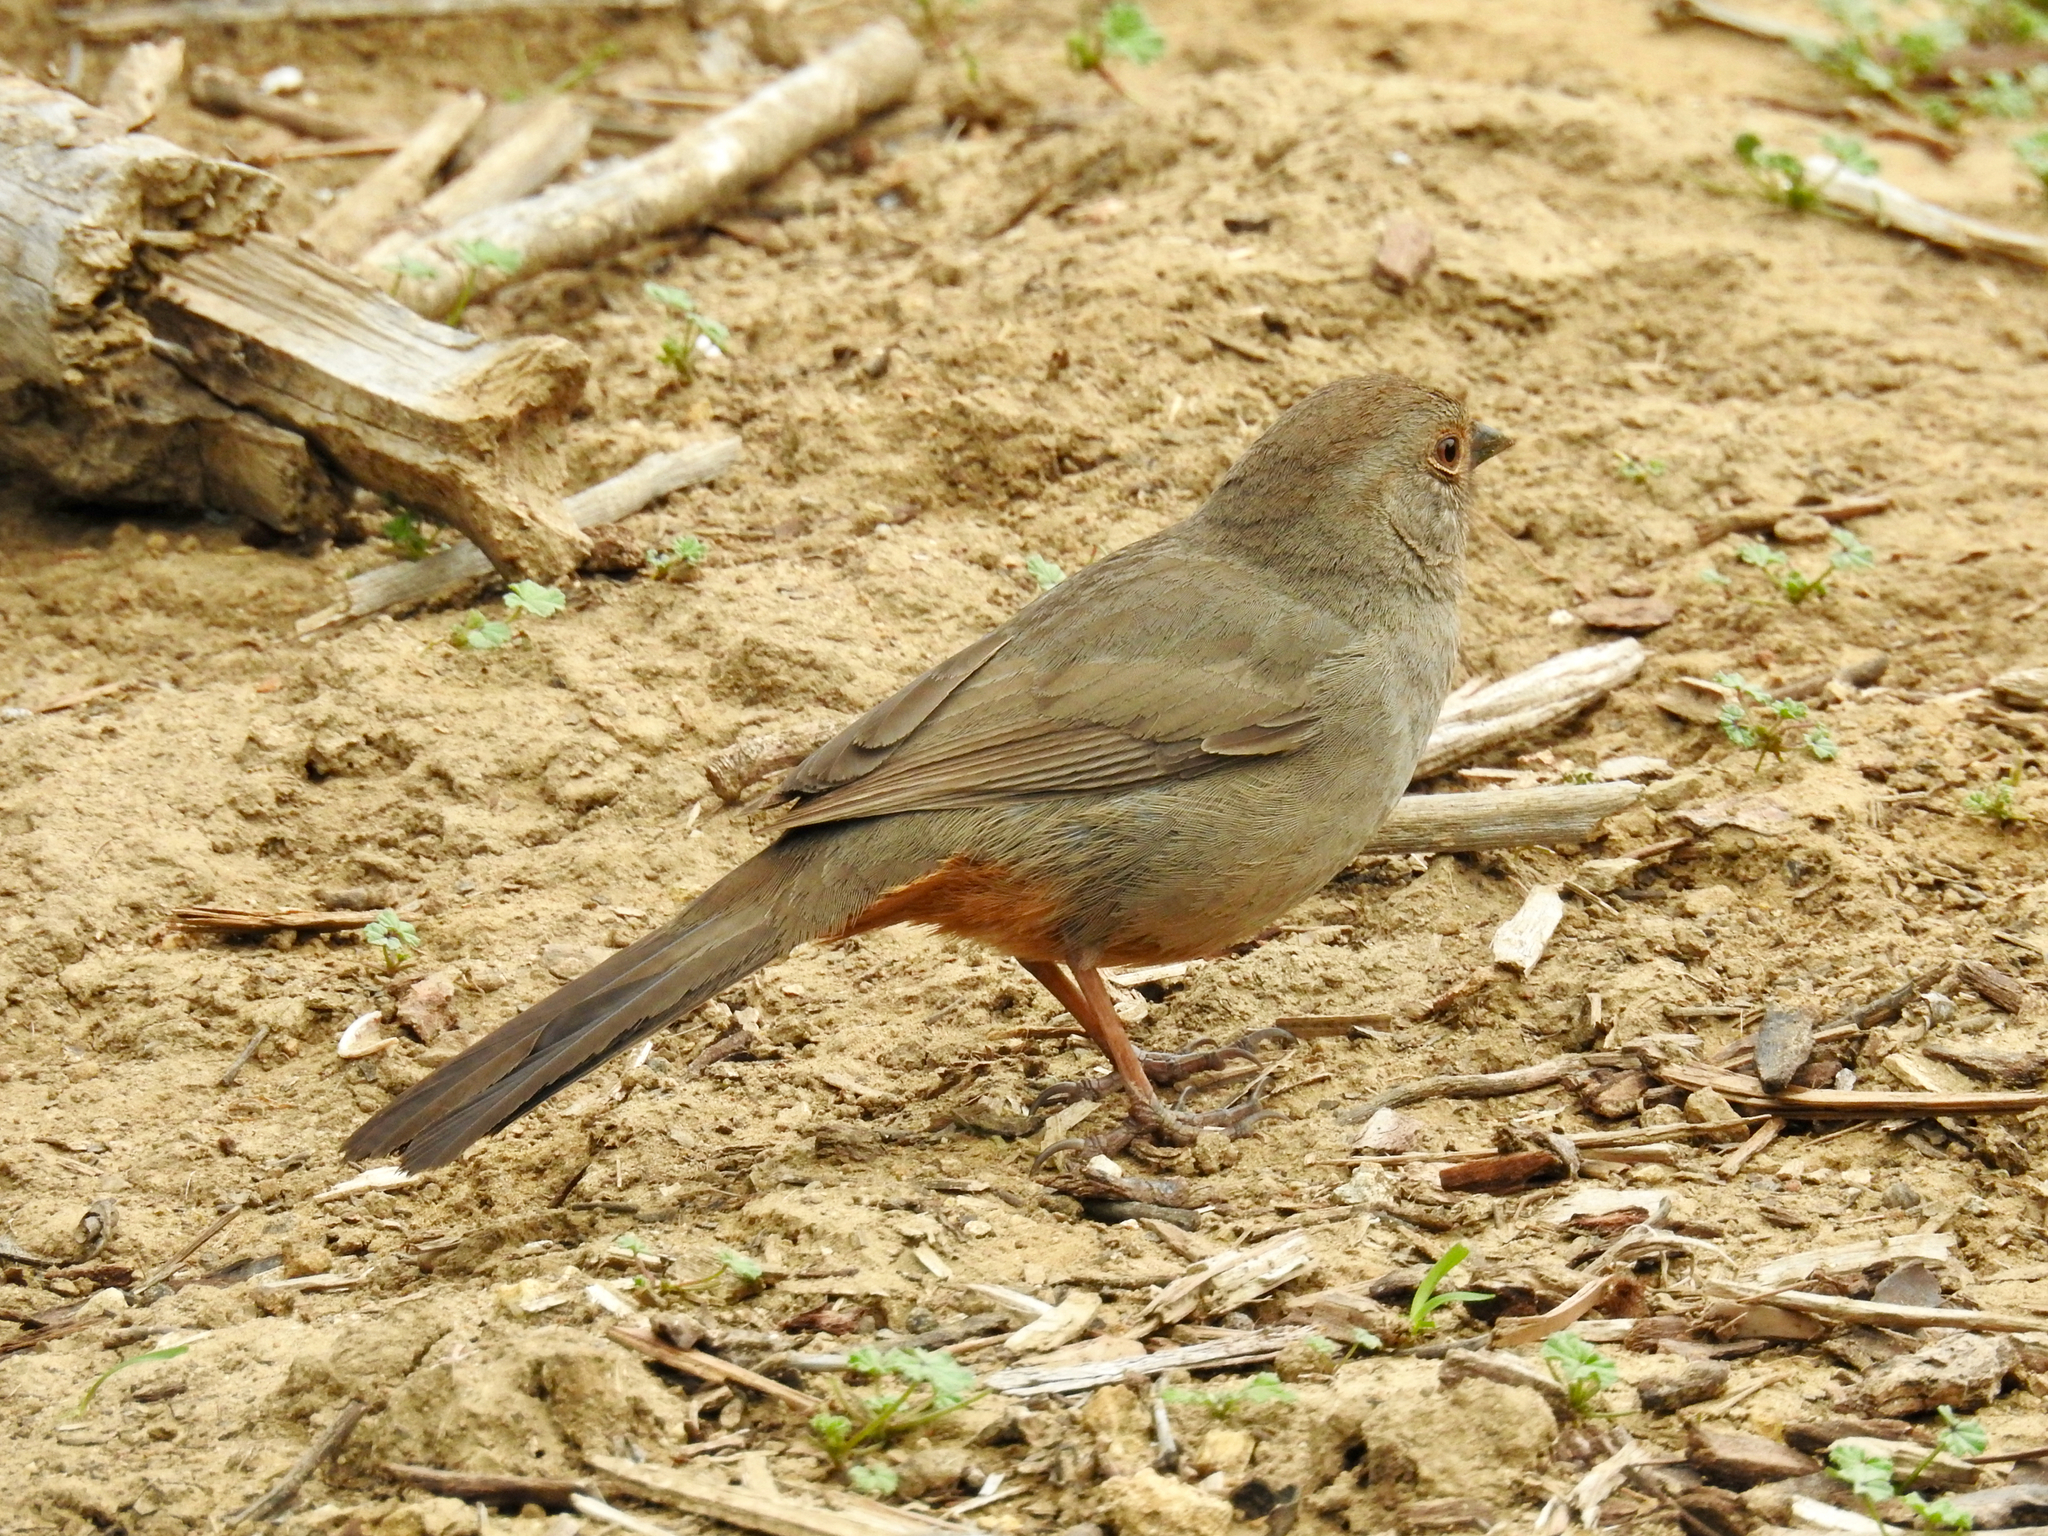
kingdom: Animalia
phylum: Chordata
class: Aves
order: Passeriformes
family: Passerellidae
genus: Melozone
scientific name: Melozone crissalis
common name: California towhee
